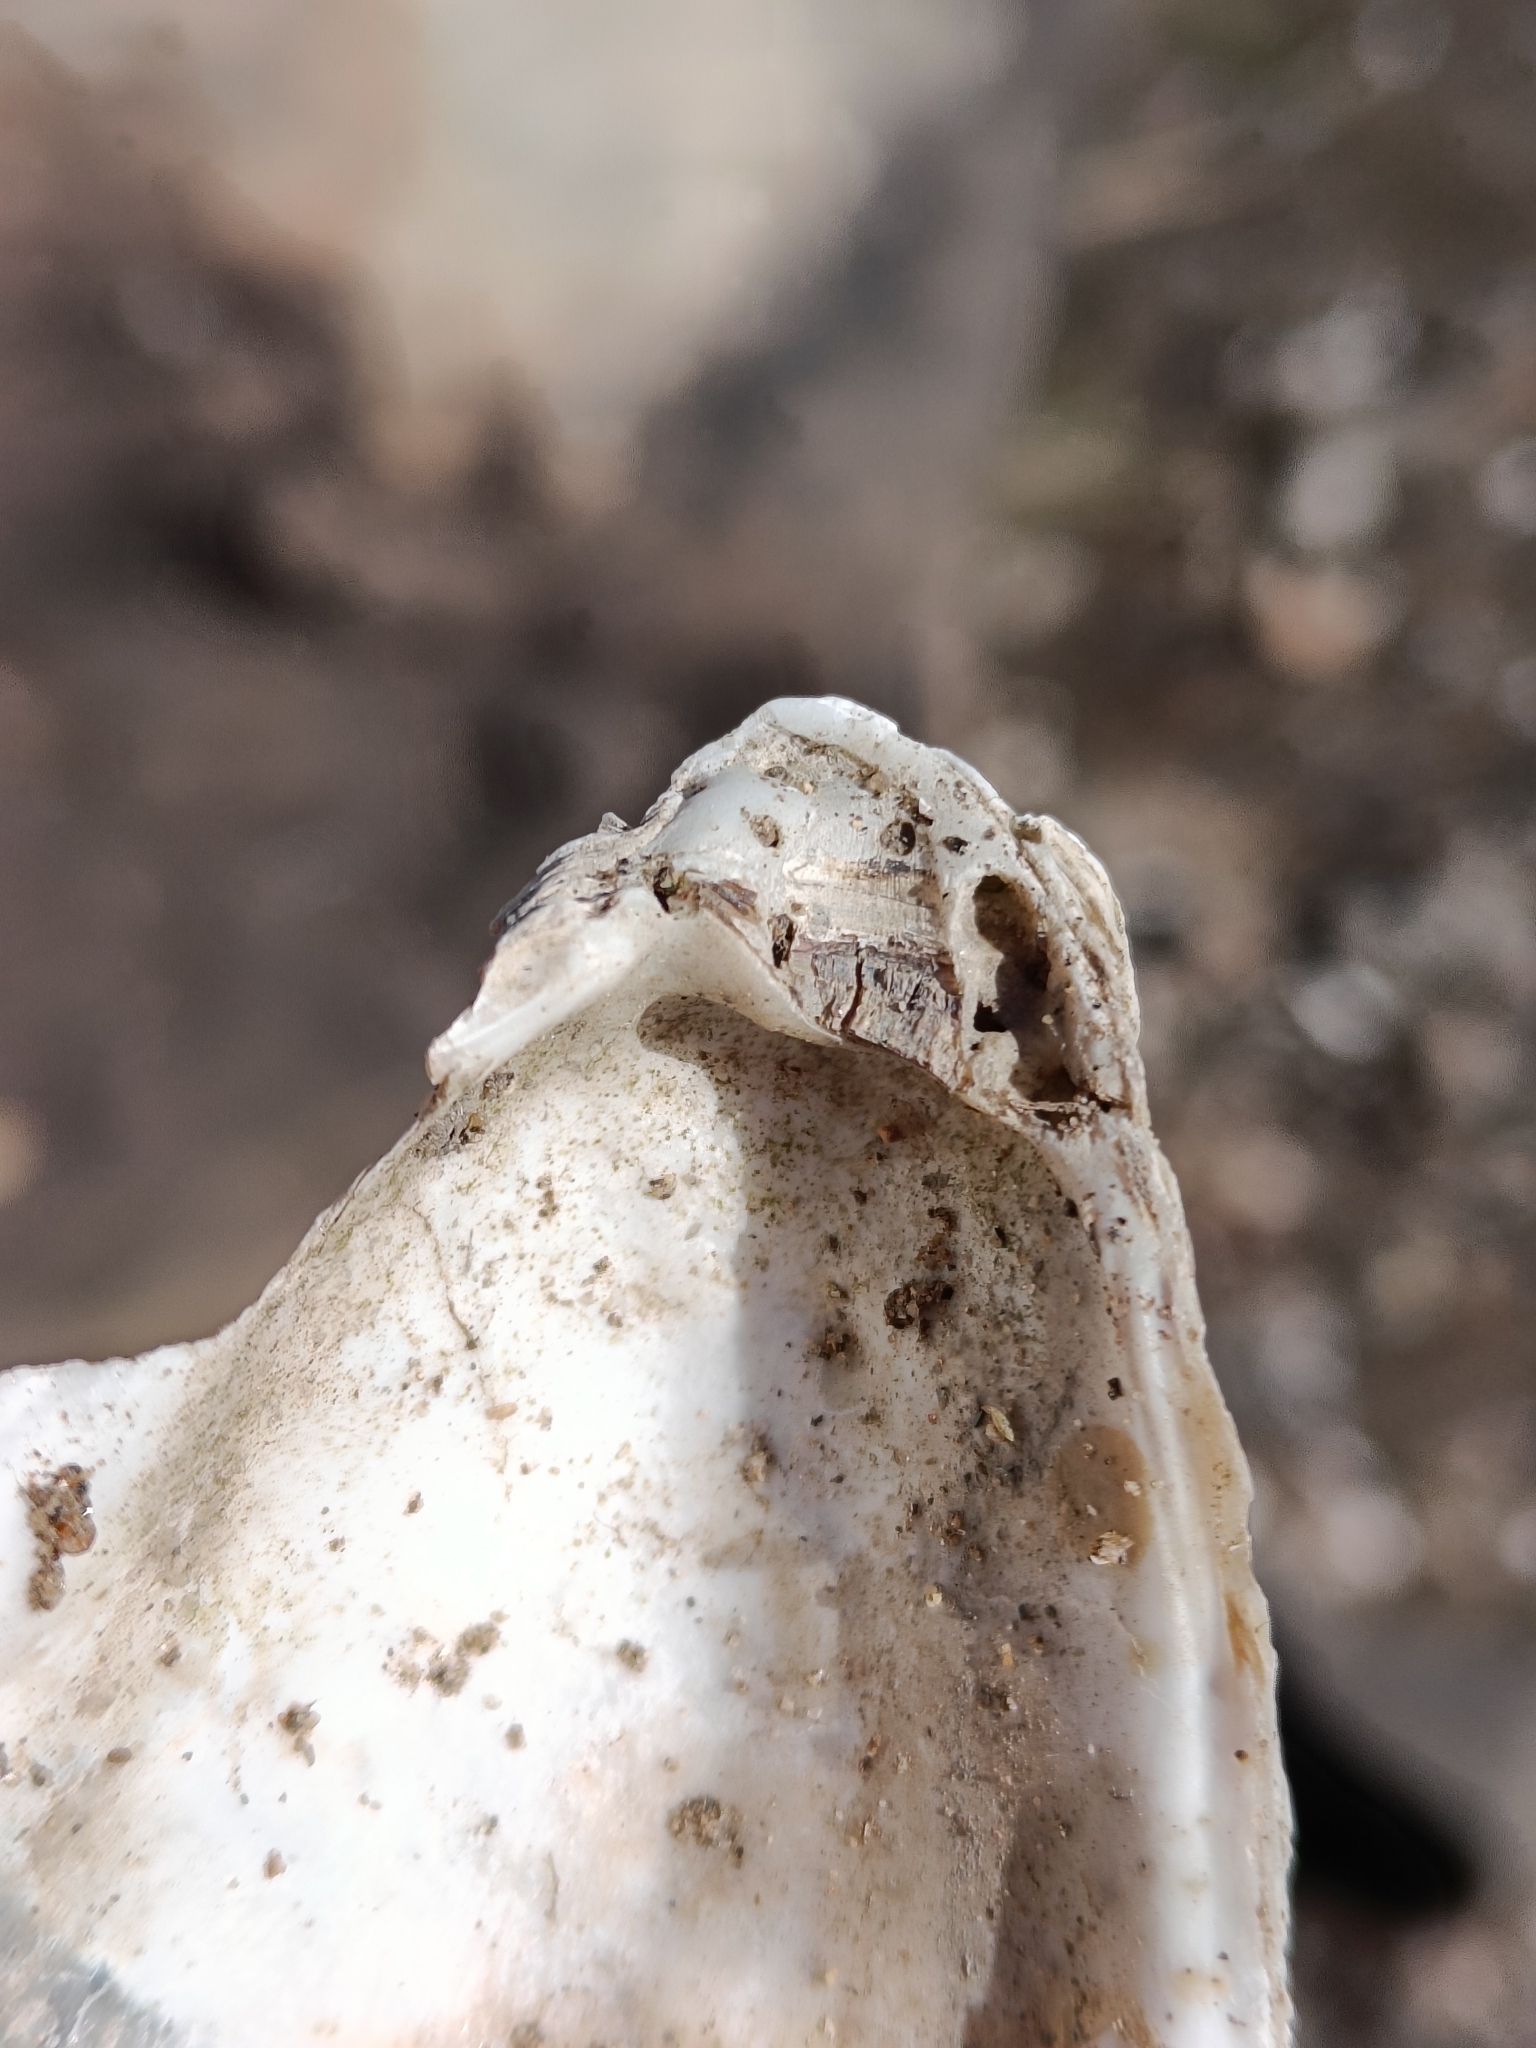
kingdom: Animalia
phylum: Mollusca
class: Bivalvia
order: Ostreida
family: Ostreidae
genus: Crassostrea
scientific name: Crassostrea virginica
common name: American oyster
